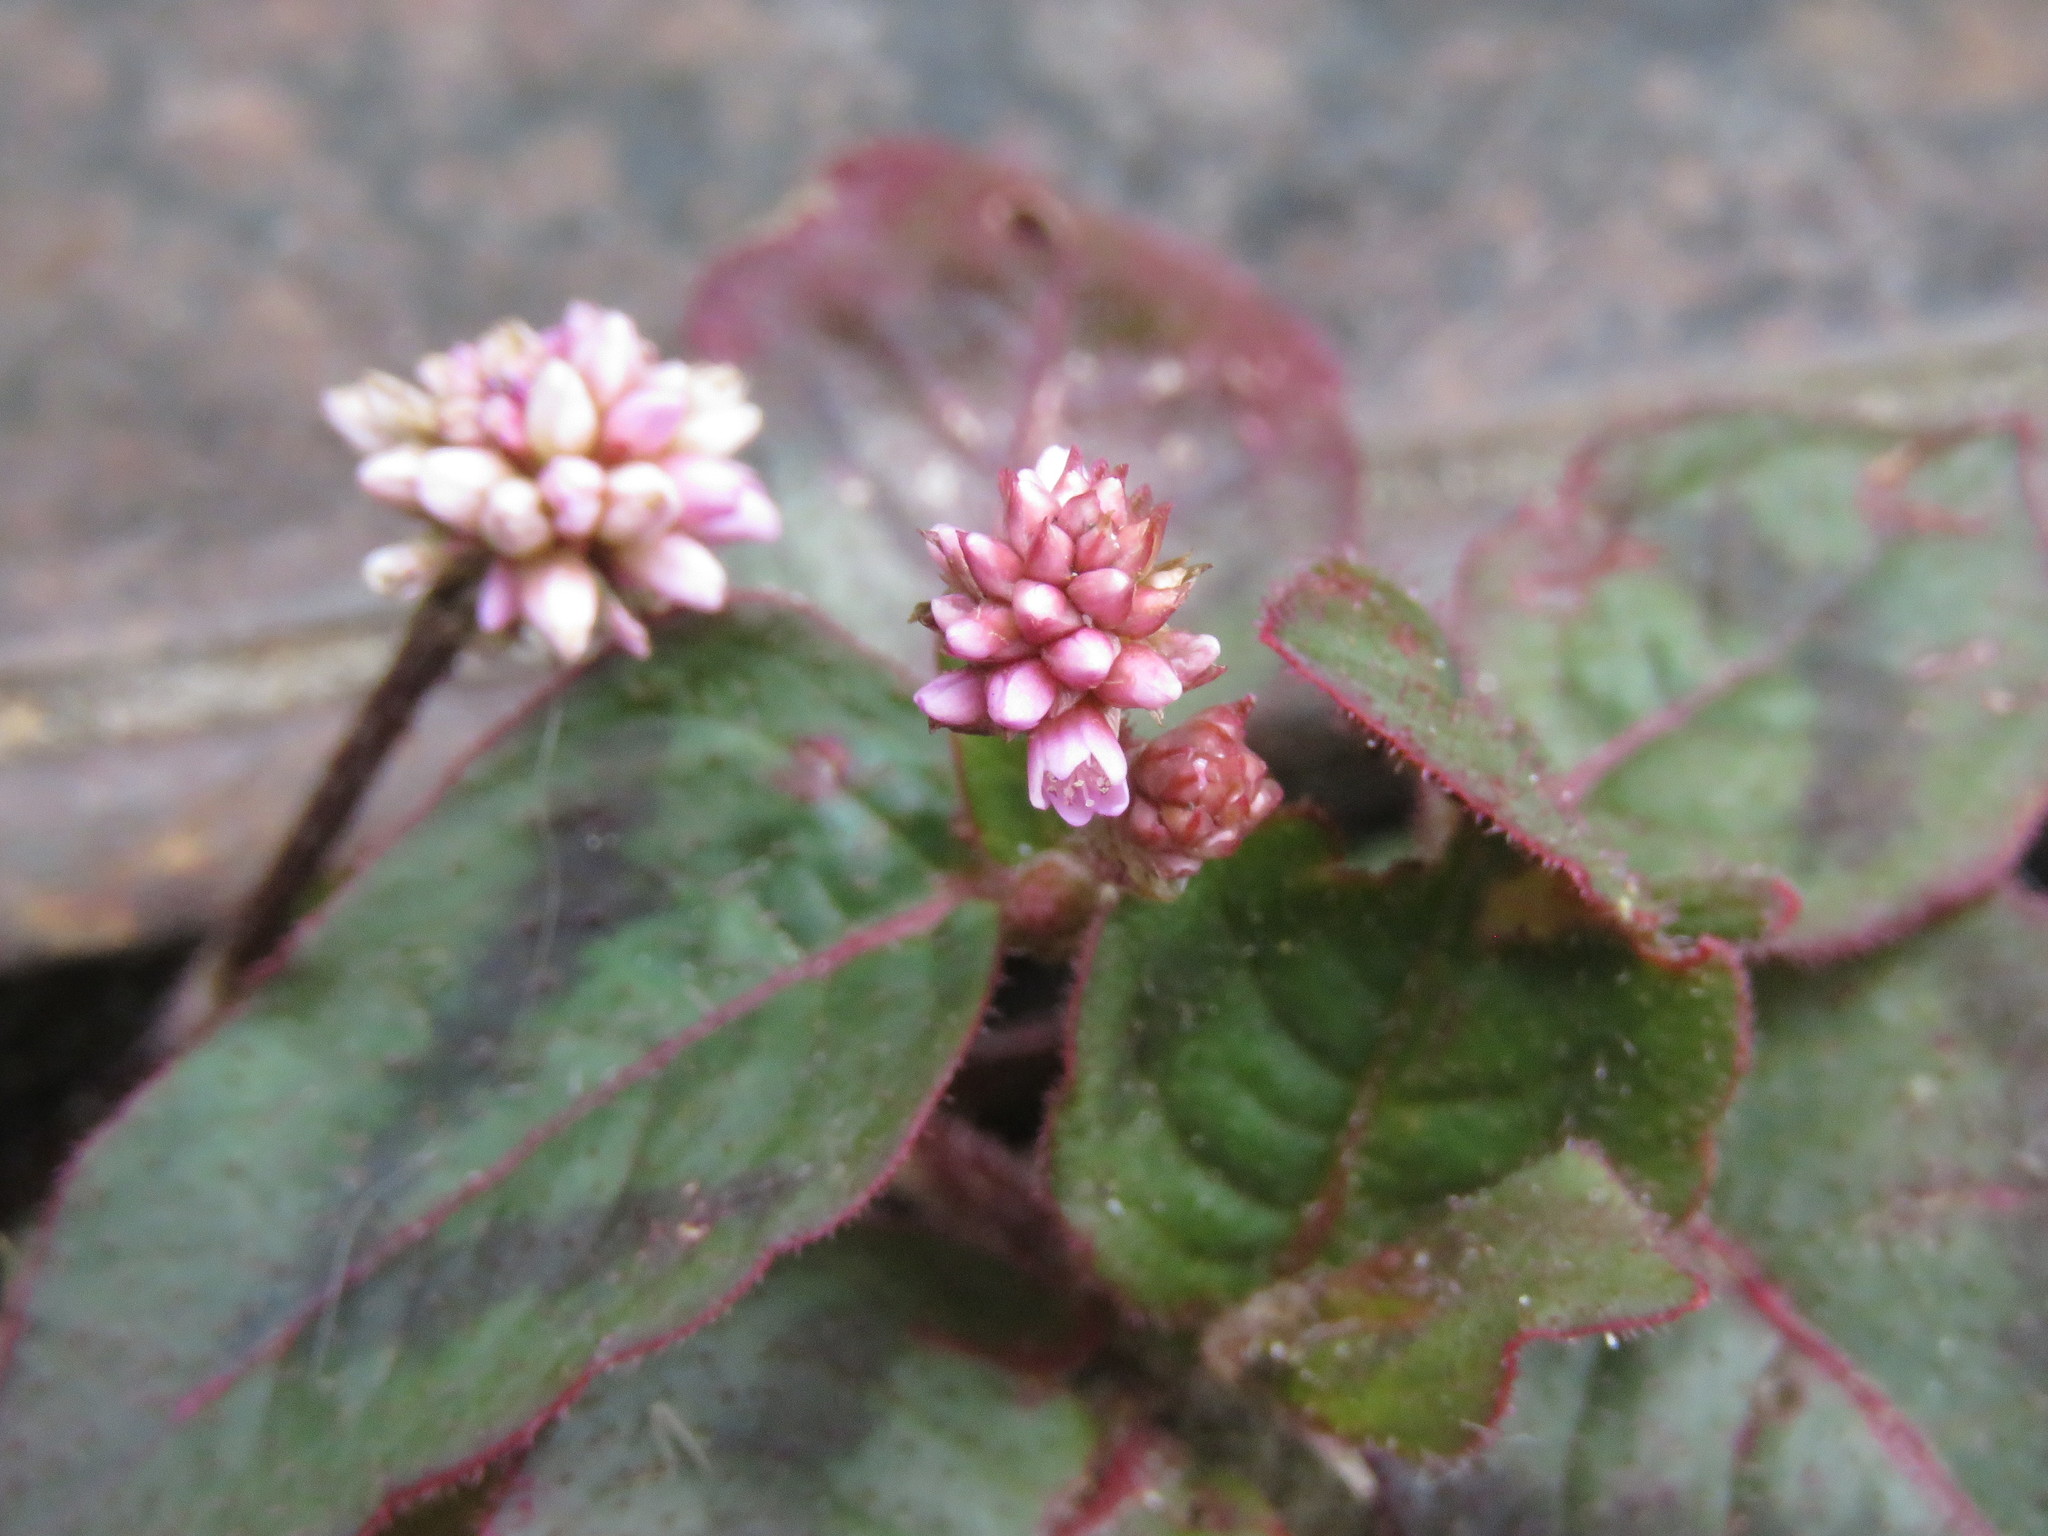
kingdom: Plantae
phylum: Tracheophyta
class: Magnoliopsida
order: Caryophyllales
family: Polygonaceae
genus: Persicaria
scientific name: Persicaria capitata
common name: Pinkhead smartweed
